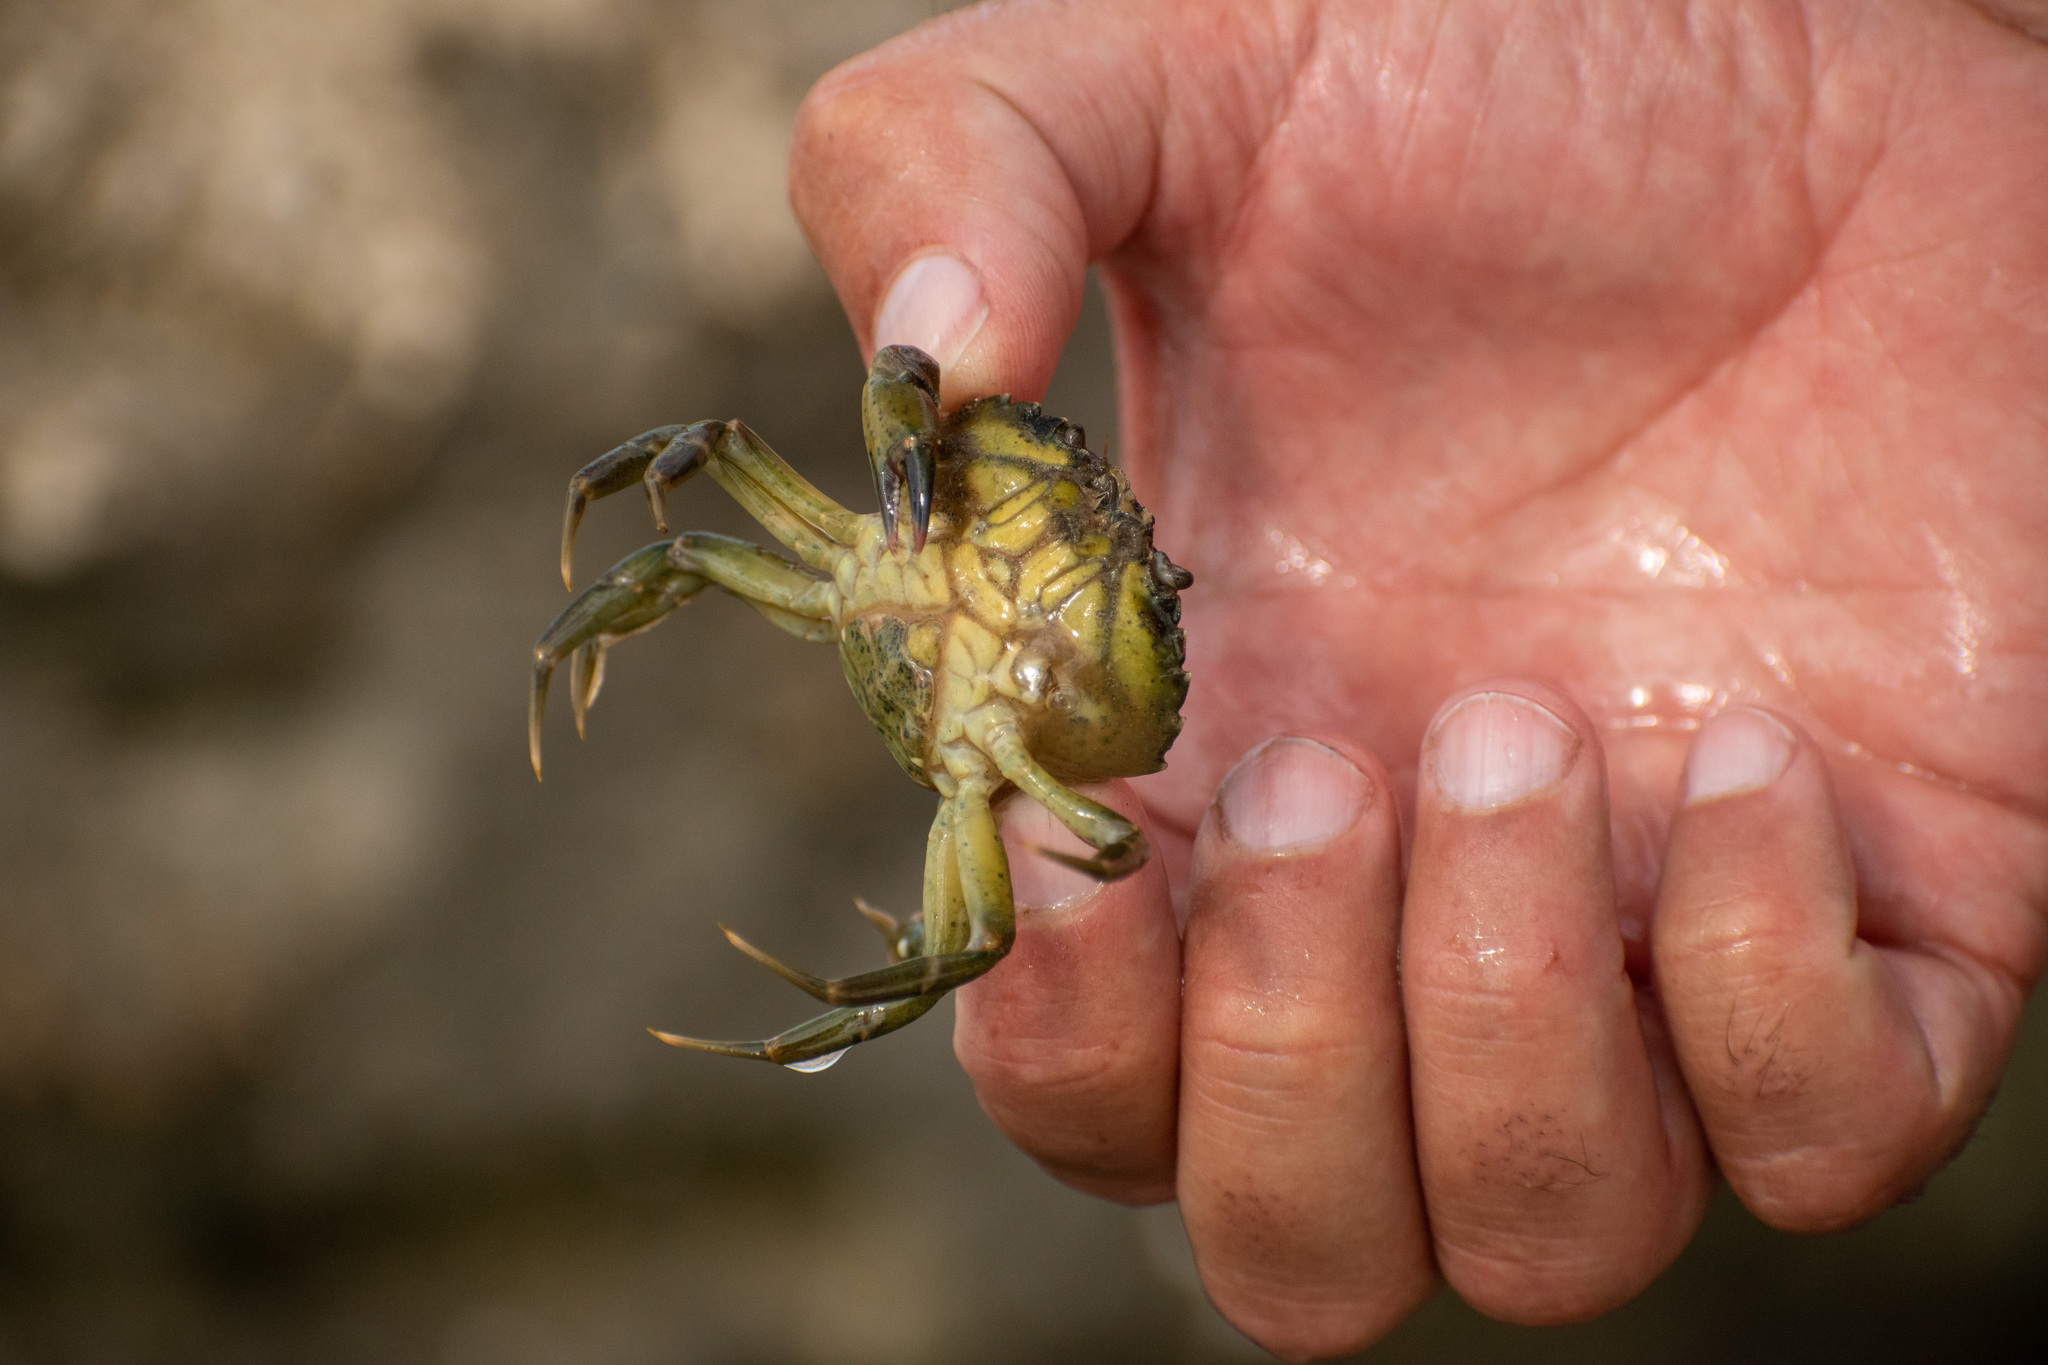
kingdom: Animalia
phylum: Arthropoda
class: Malacostraca
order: Decapoda
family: Carcinidae
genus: Carcinus
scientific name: Carcinus maenas
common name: European green crab
